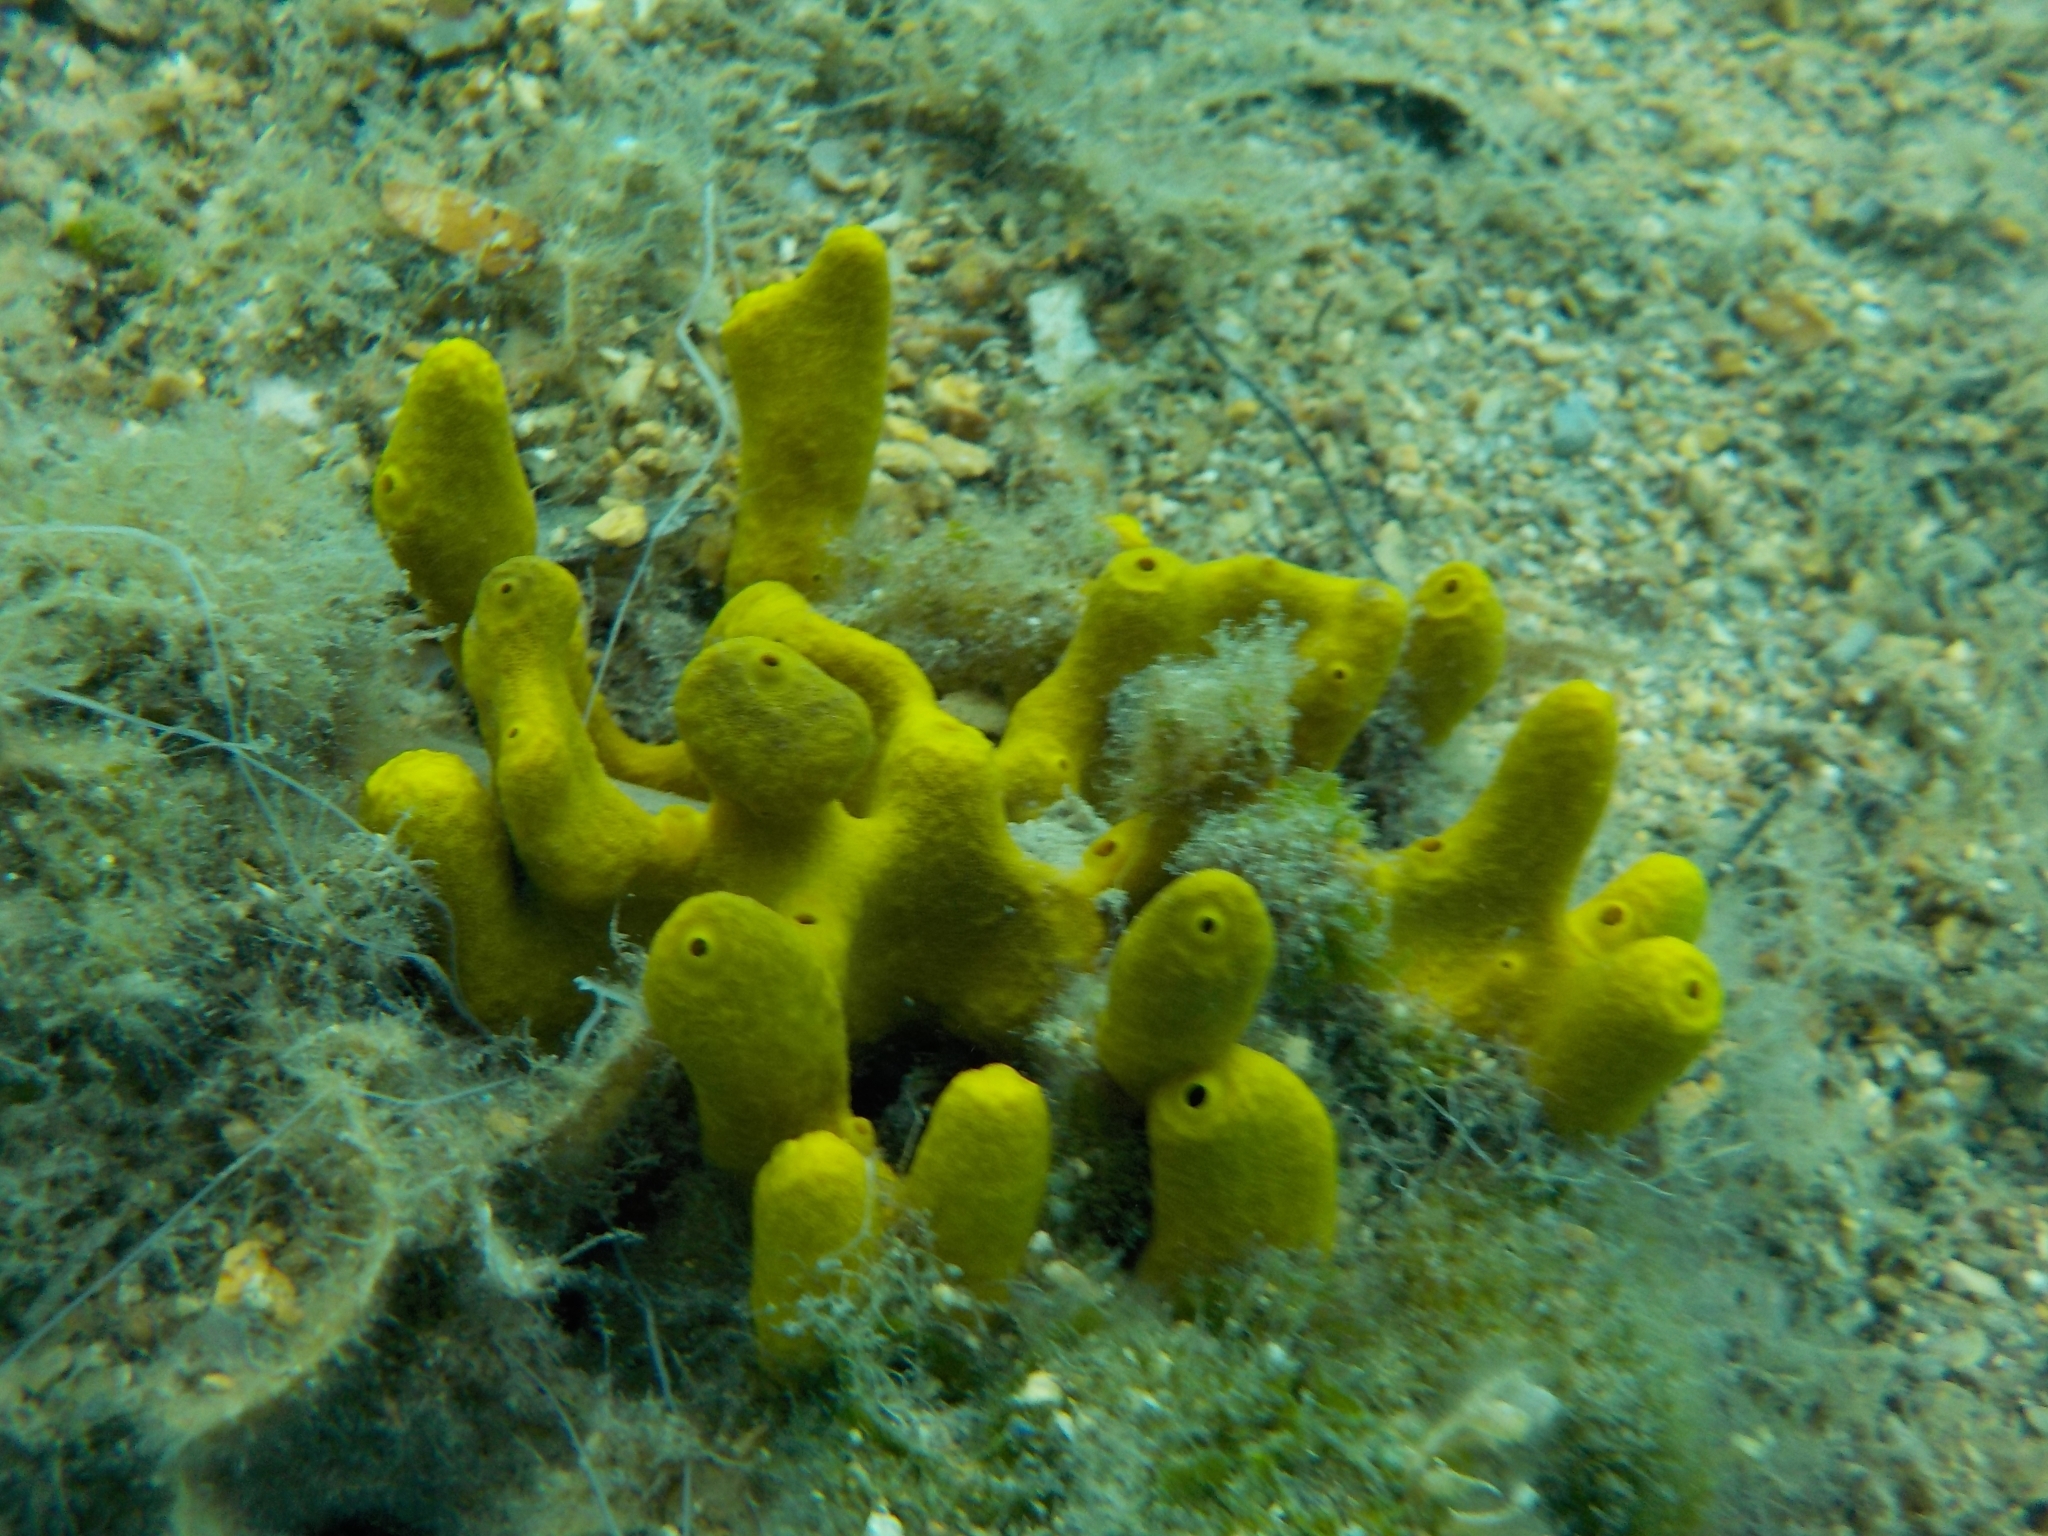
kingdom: Animalia
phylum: Porifera
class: Demospongiae
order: Verongiida
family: Aplysinidae
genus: Aplysina
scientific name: Aplysina aerophoba
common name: Aureate sponge
